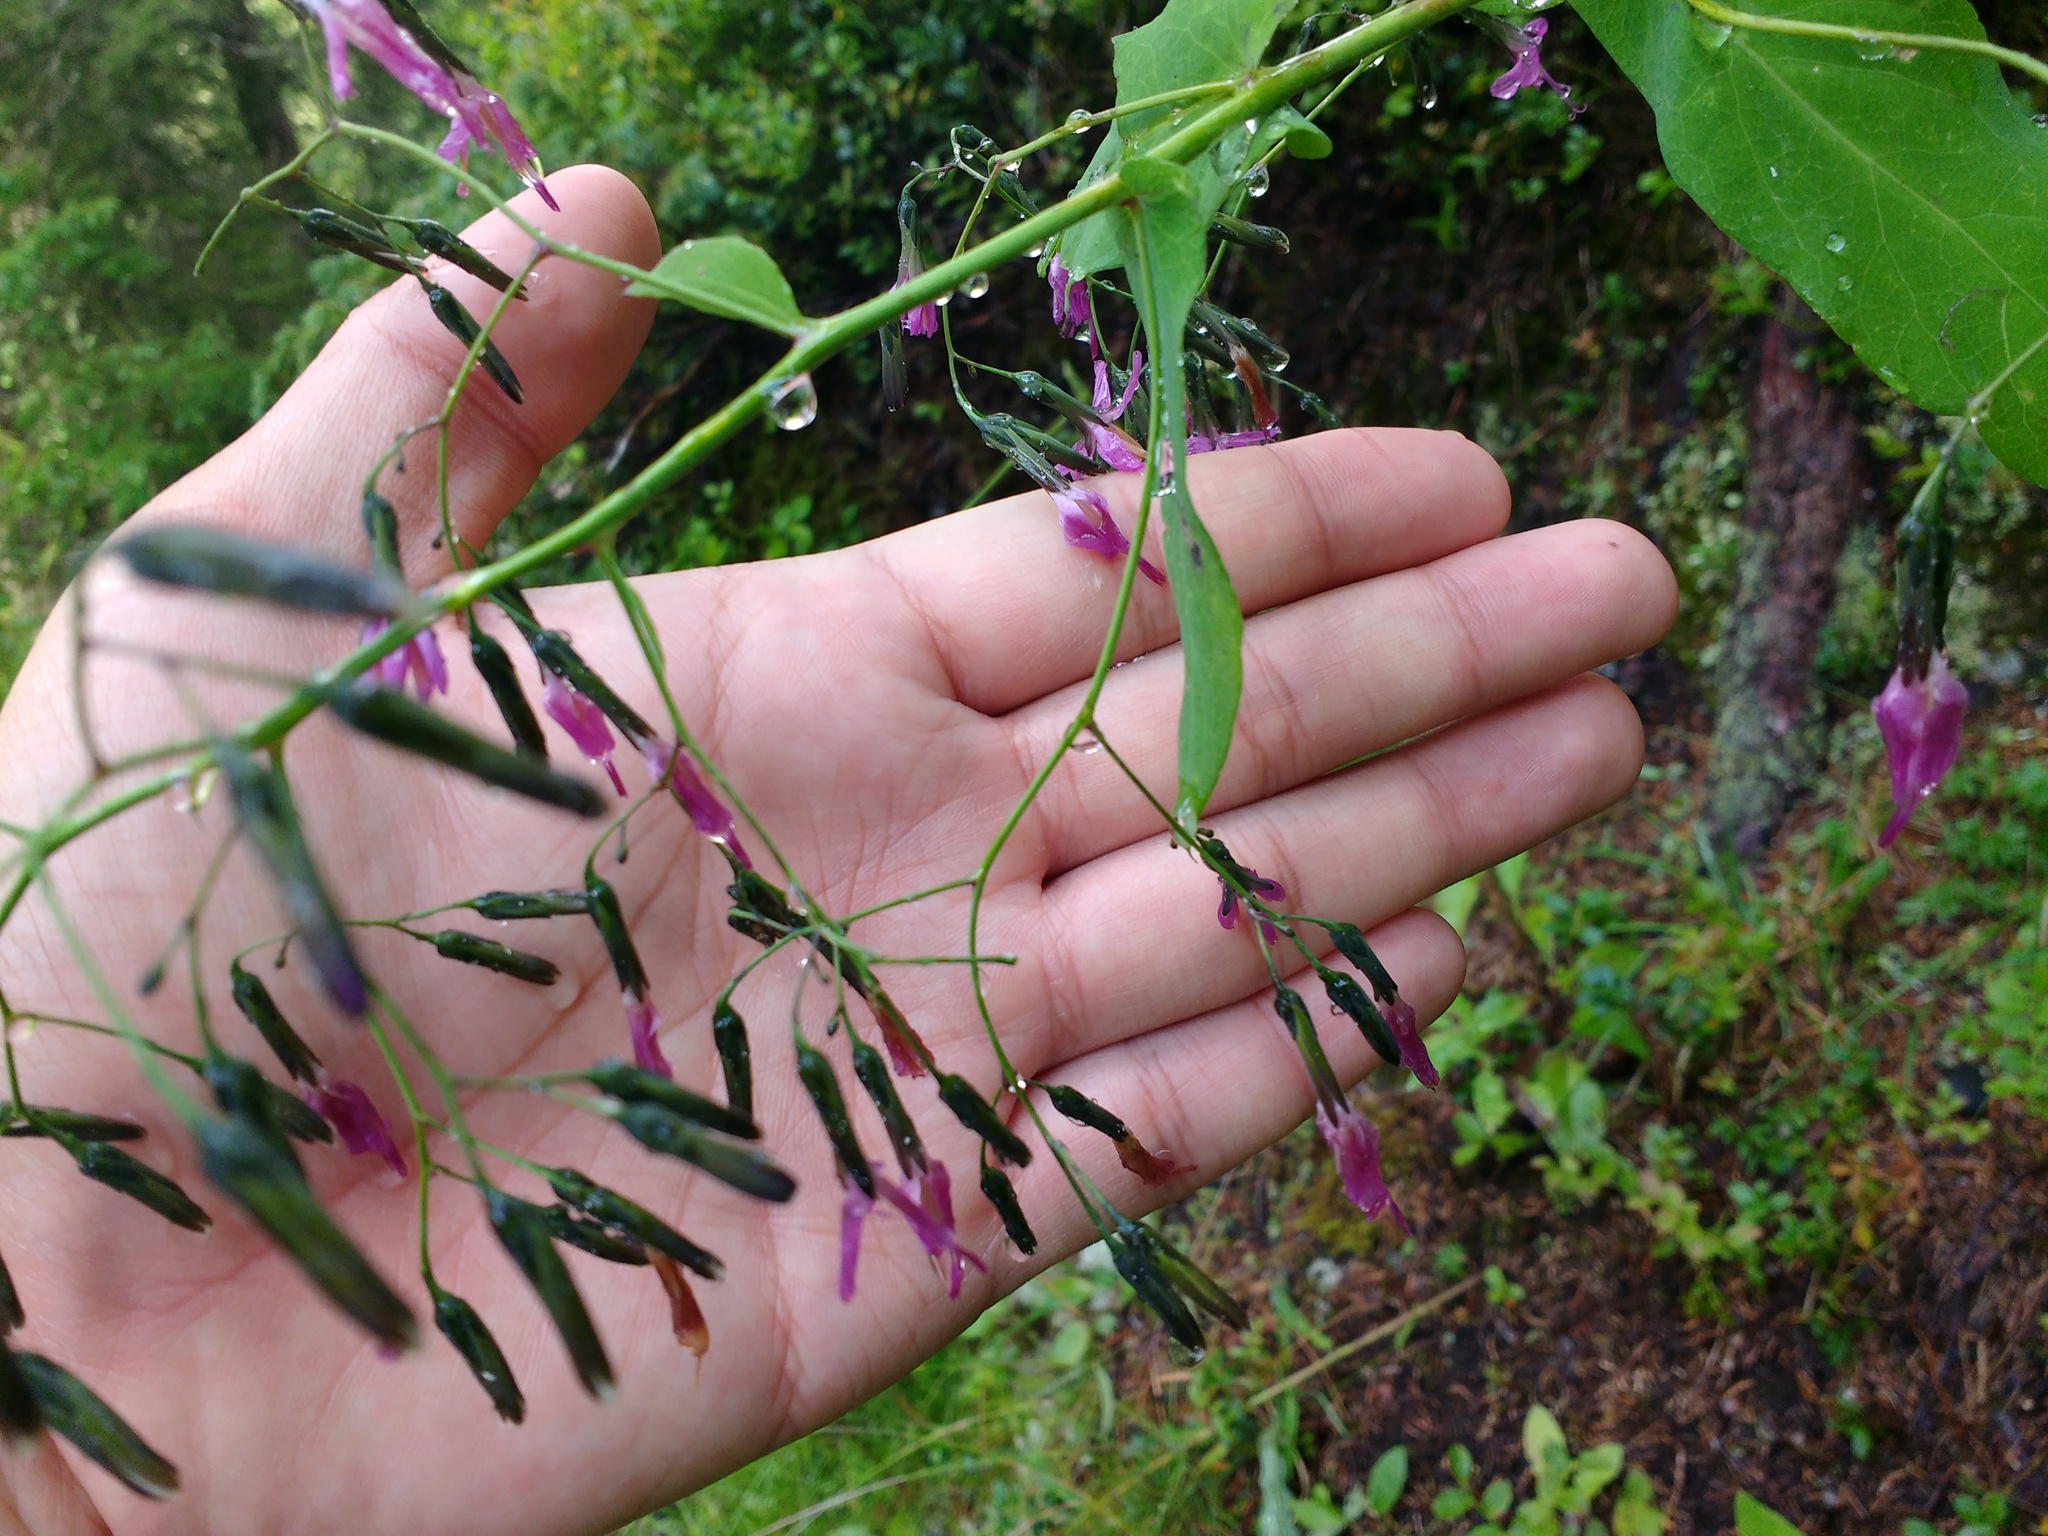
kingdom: Plantae
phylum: Tracheophyta
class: Magnoliopsida
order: Asterales
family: Asteraceae
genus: Prenanthes
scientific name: Prenanthes purpurea
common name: Purple lettuce
